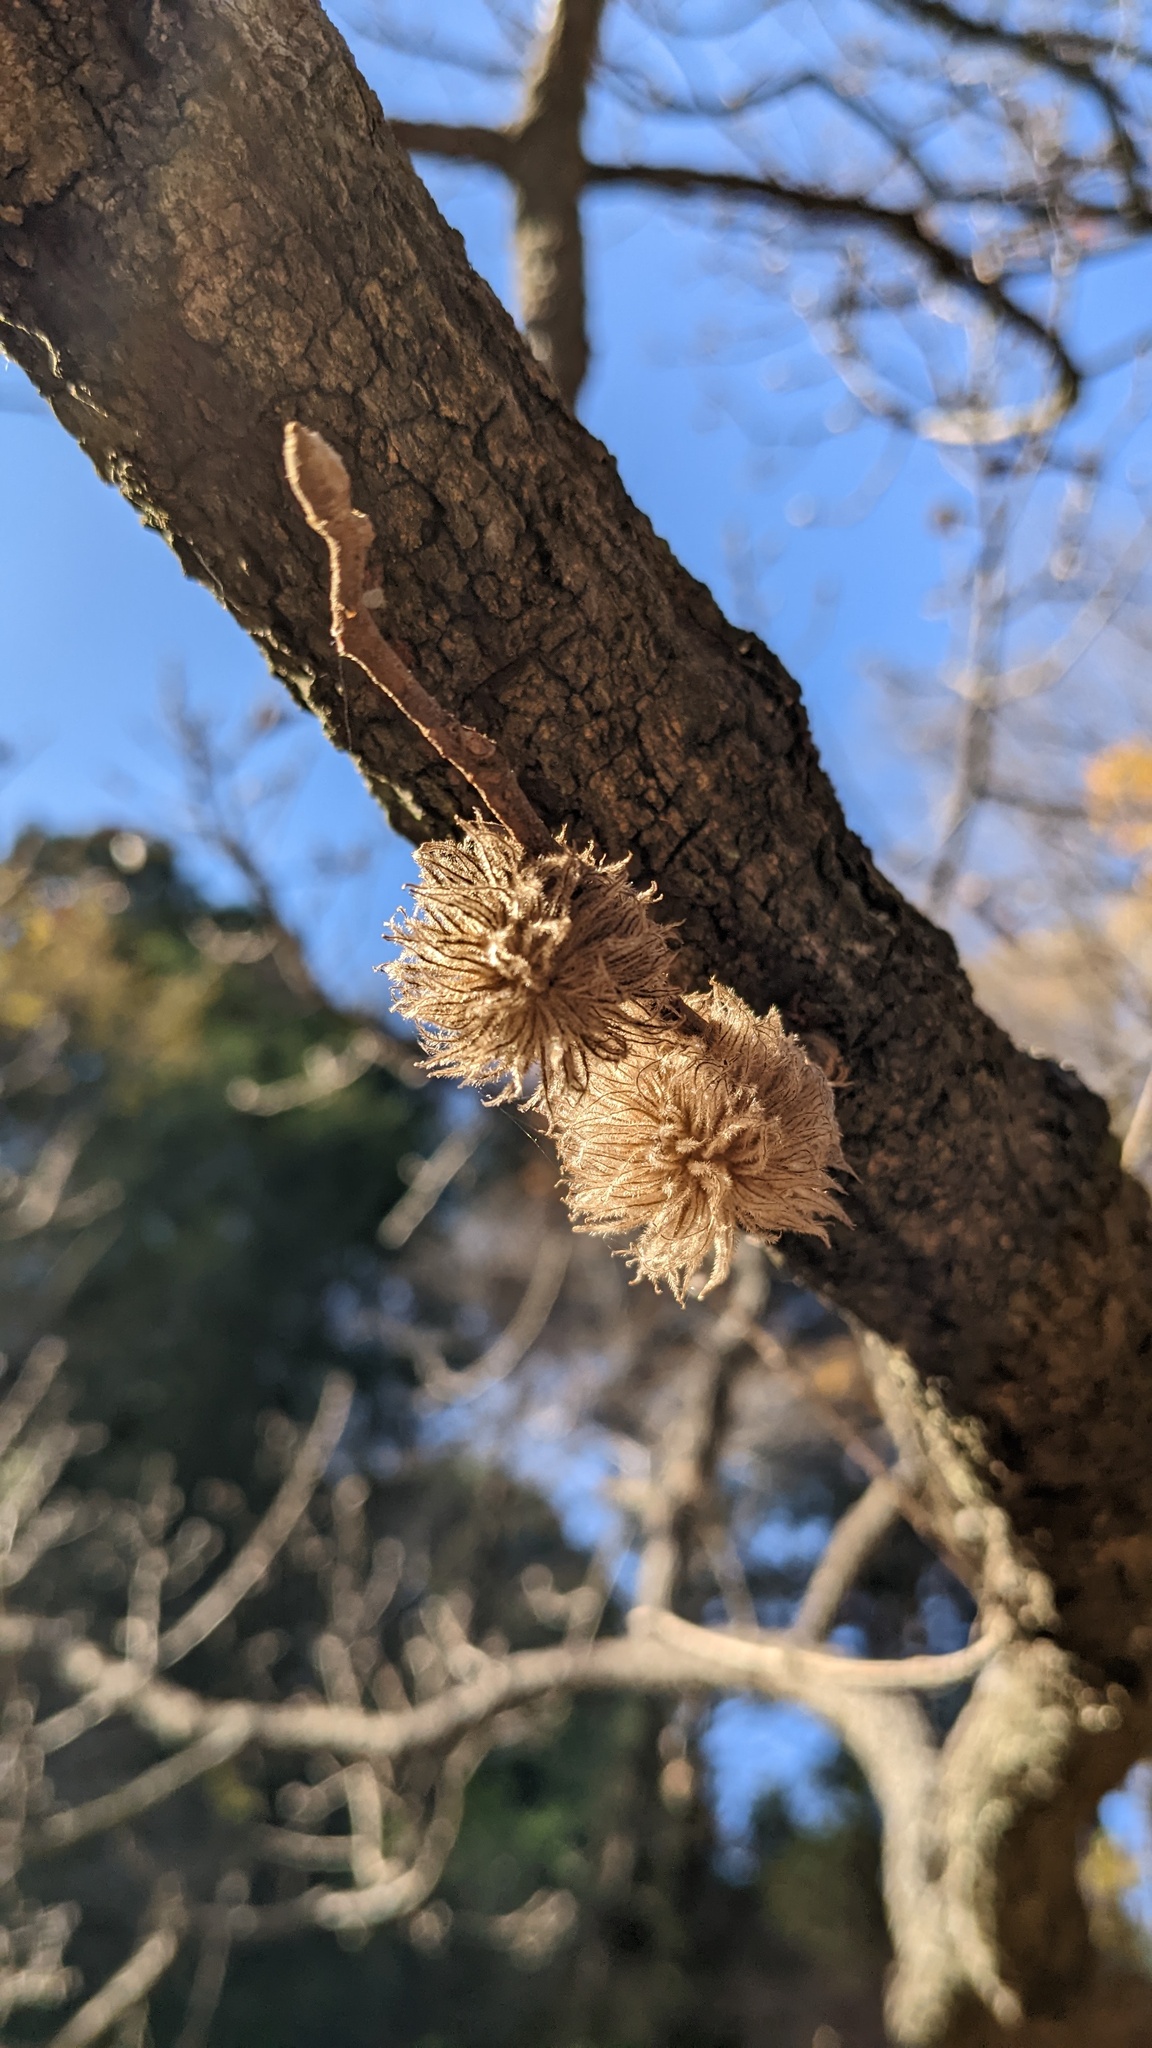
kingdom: Animalia
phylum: Arthropoda
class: Insecta
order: Hymenoptera
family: Cynipidae
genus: Trichagalma
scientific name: Trichagalma serratae
